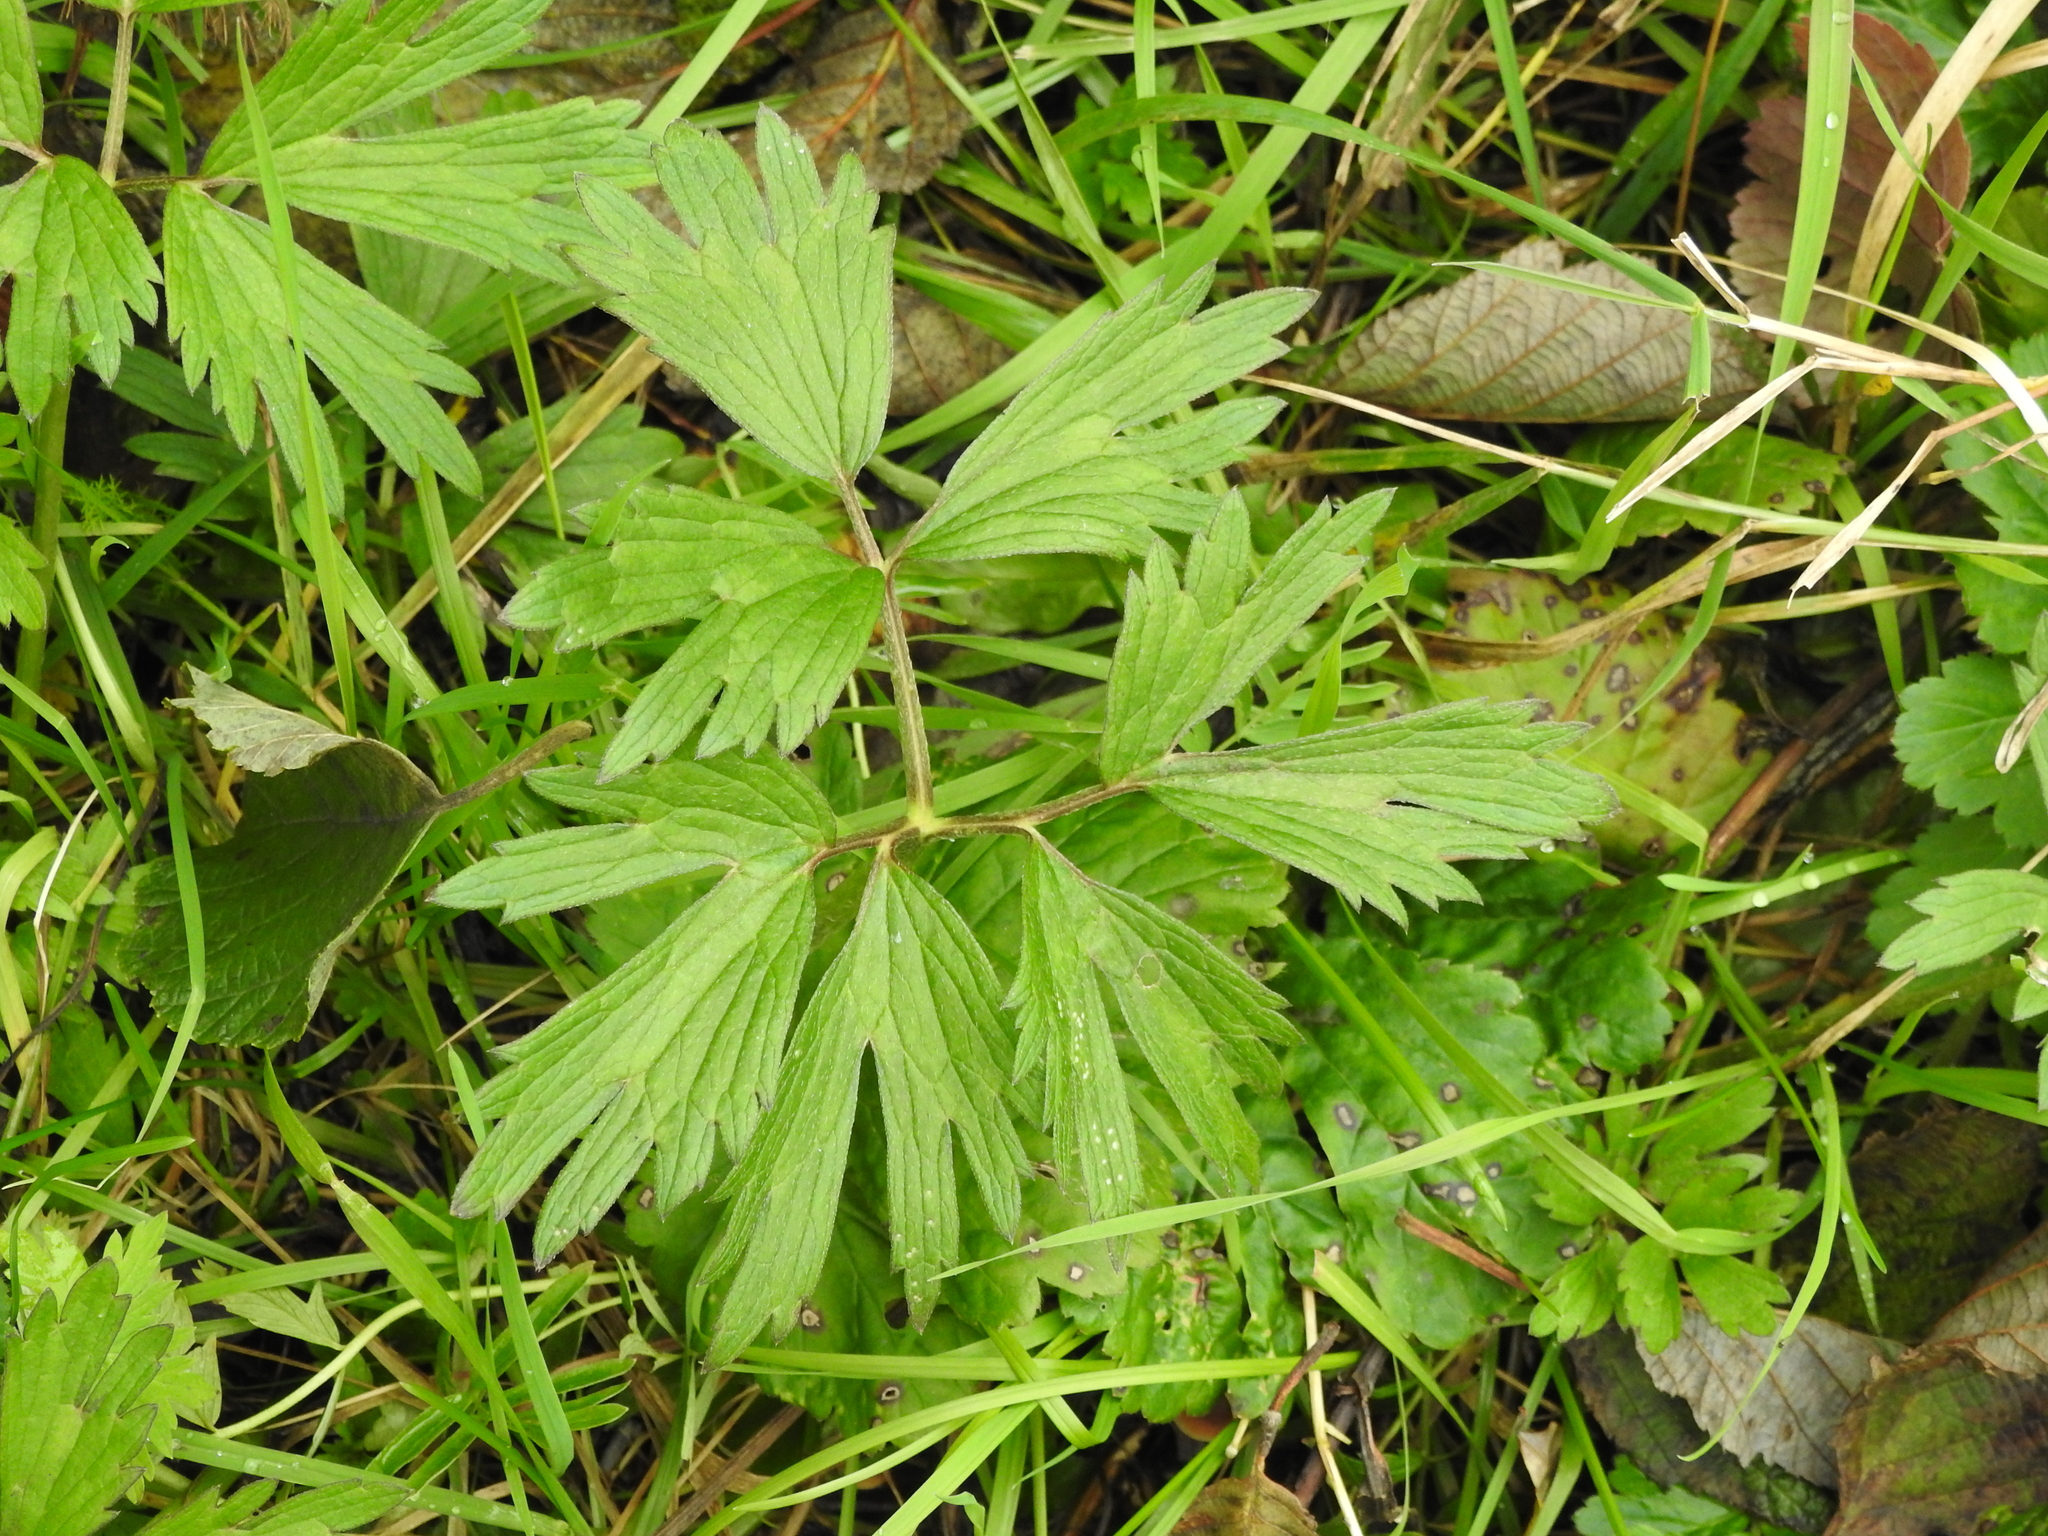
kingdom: Plantae
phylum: Tracheophyta
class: Magnoliopsida
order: Ranunculales
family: Ranunculaceae
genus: Ranunculus
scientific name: Ranunculus repens
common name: Creeping buttercup
